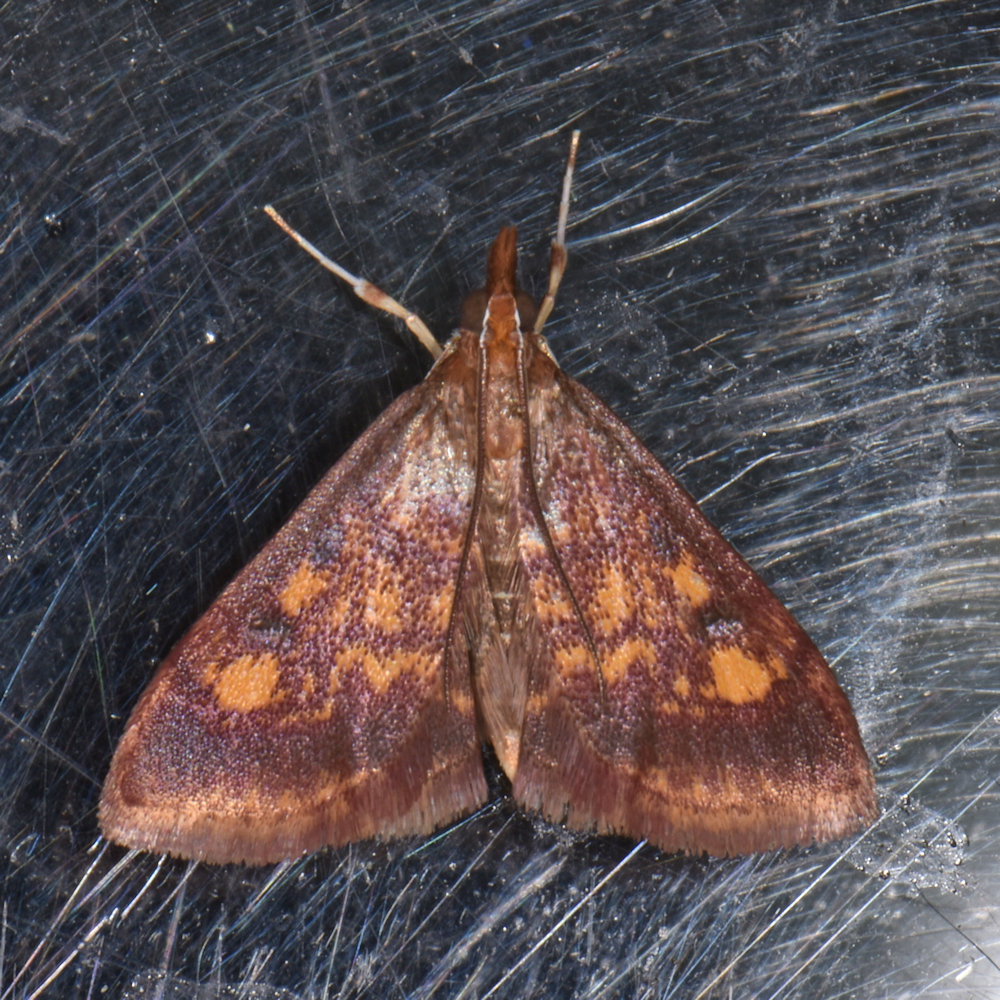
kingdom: Animalia
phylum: Arthropoda
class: Insecta
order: Lepidoptera
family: Crambidae
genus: Pyrausta
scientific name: Pyrausta acrionalis
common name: Mint-loving pyrausta moth
